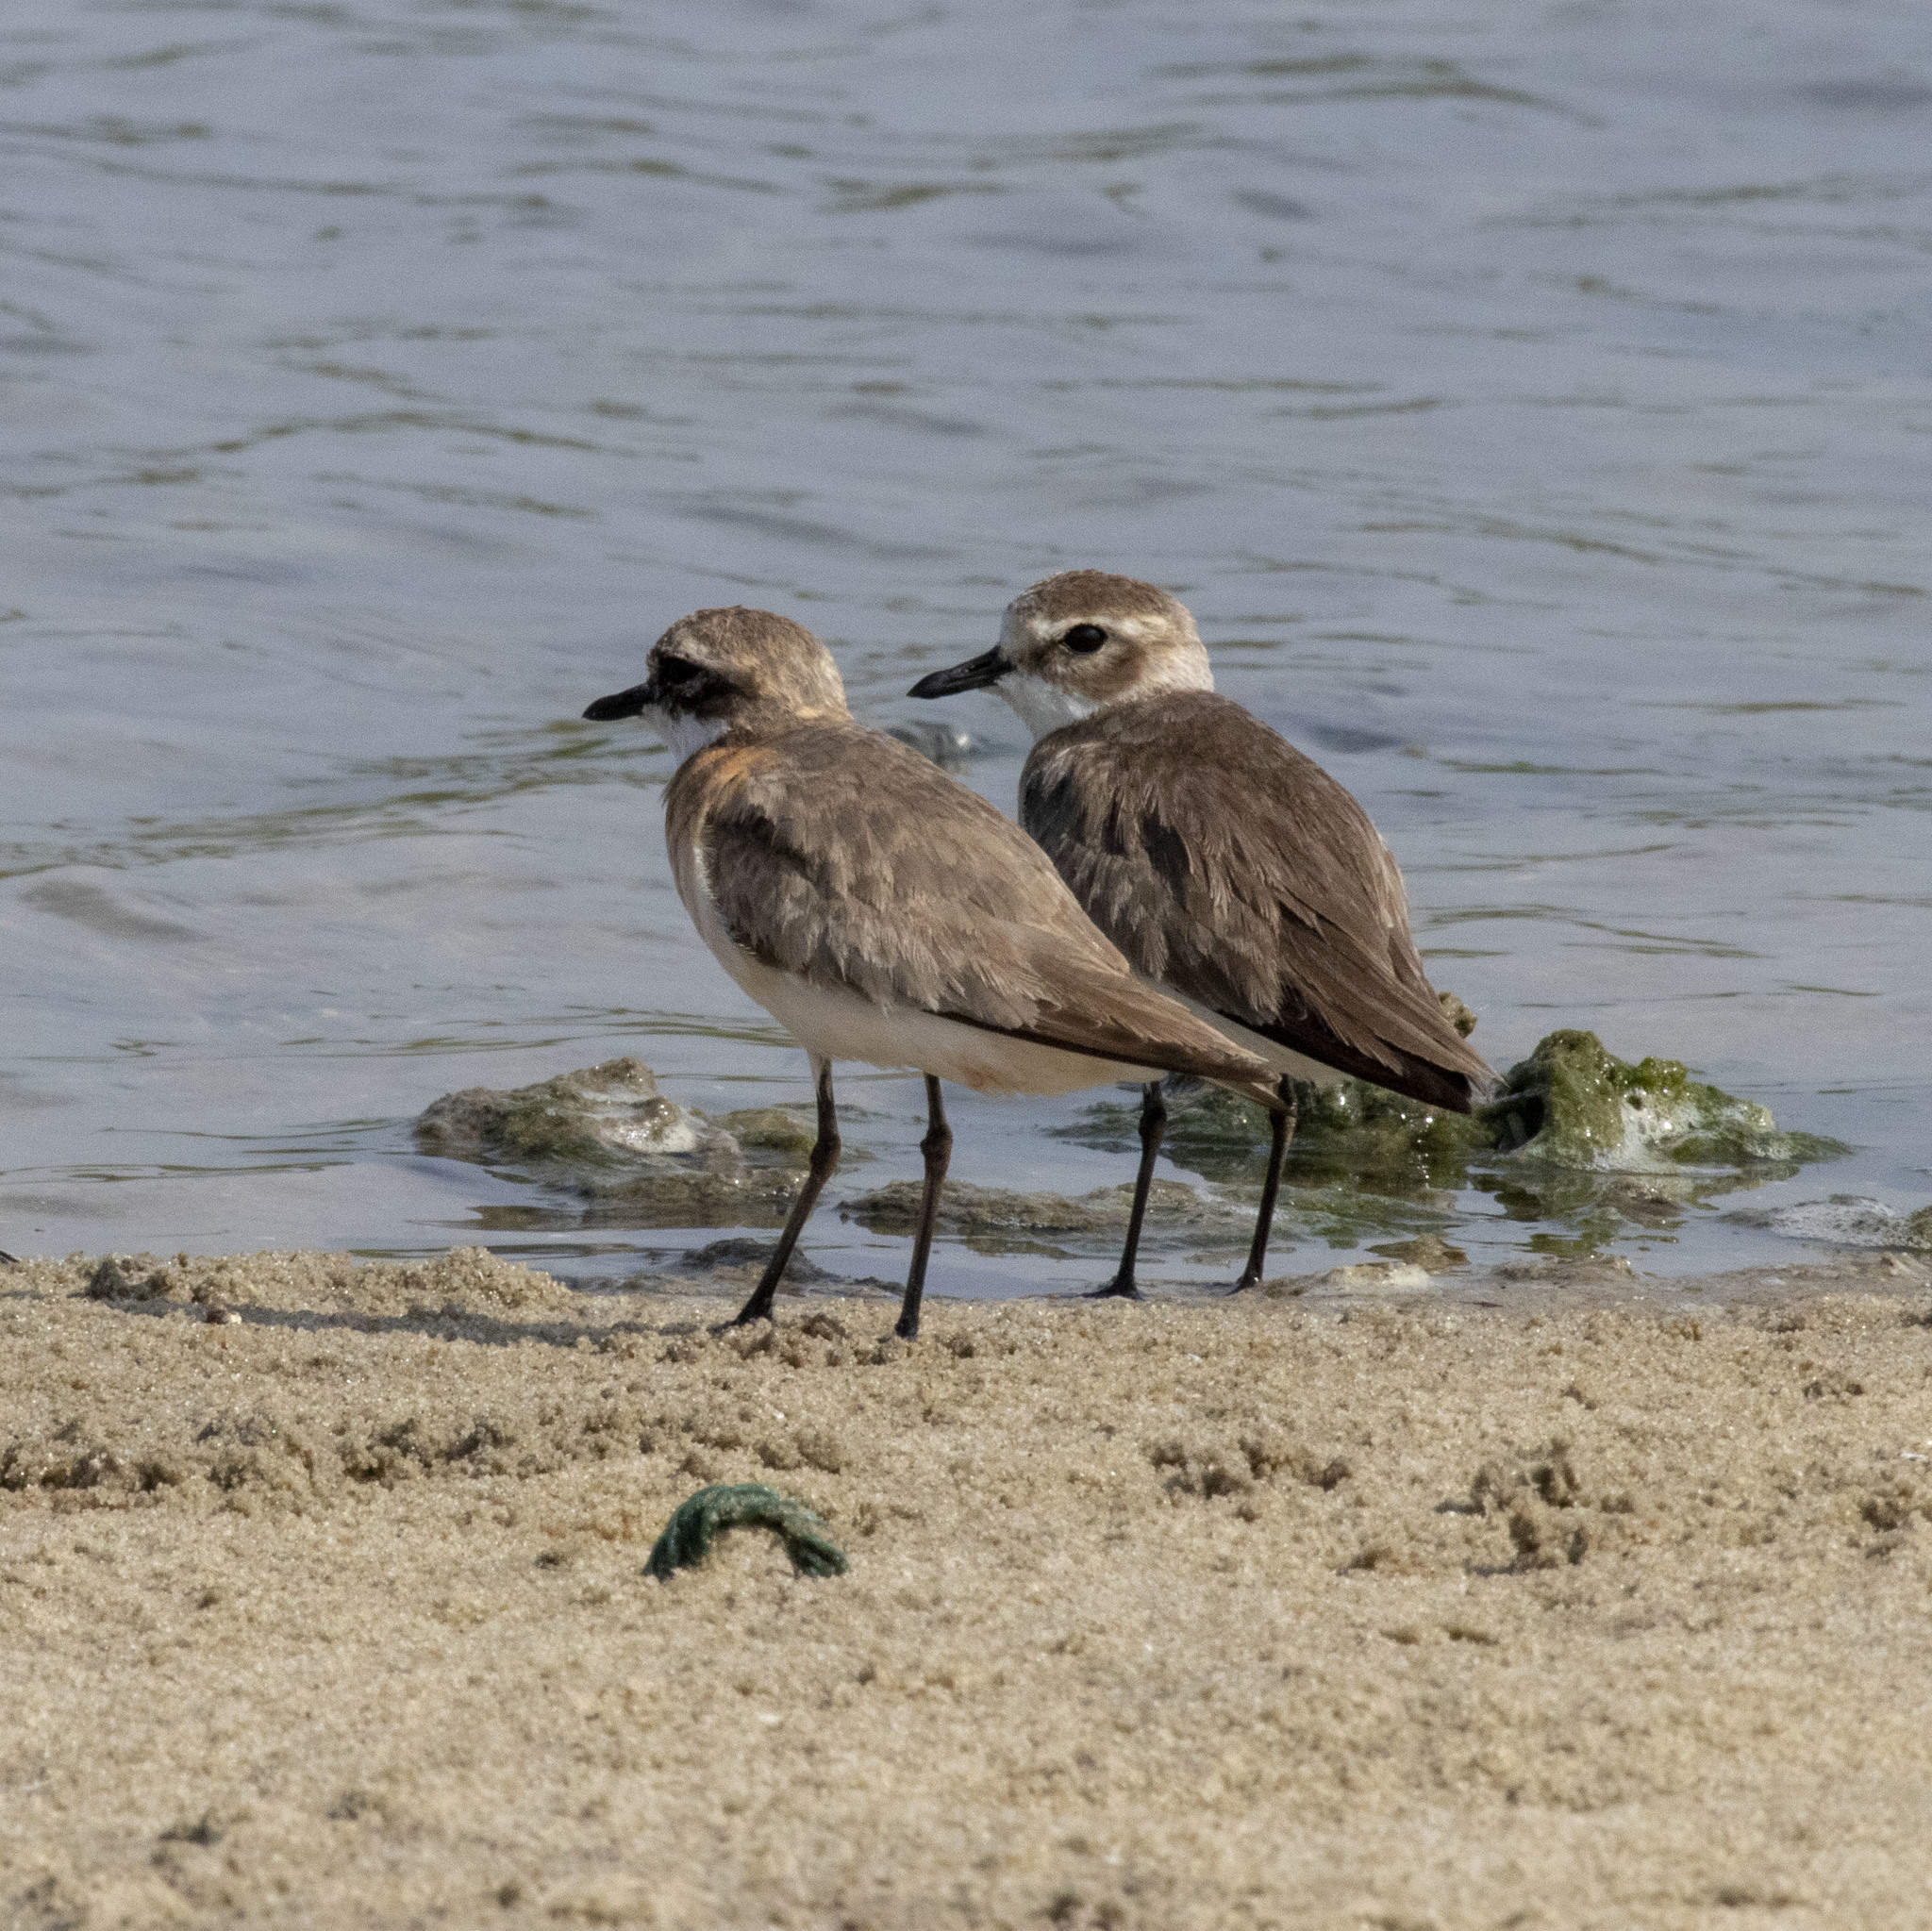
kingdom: Animalia
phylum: Chordata
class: Aves
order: Charadriiformes
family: Charadriidae
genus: Anarhynchus
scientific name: Anarhynchus
